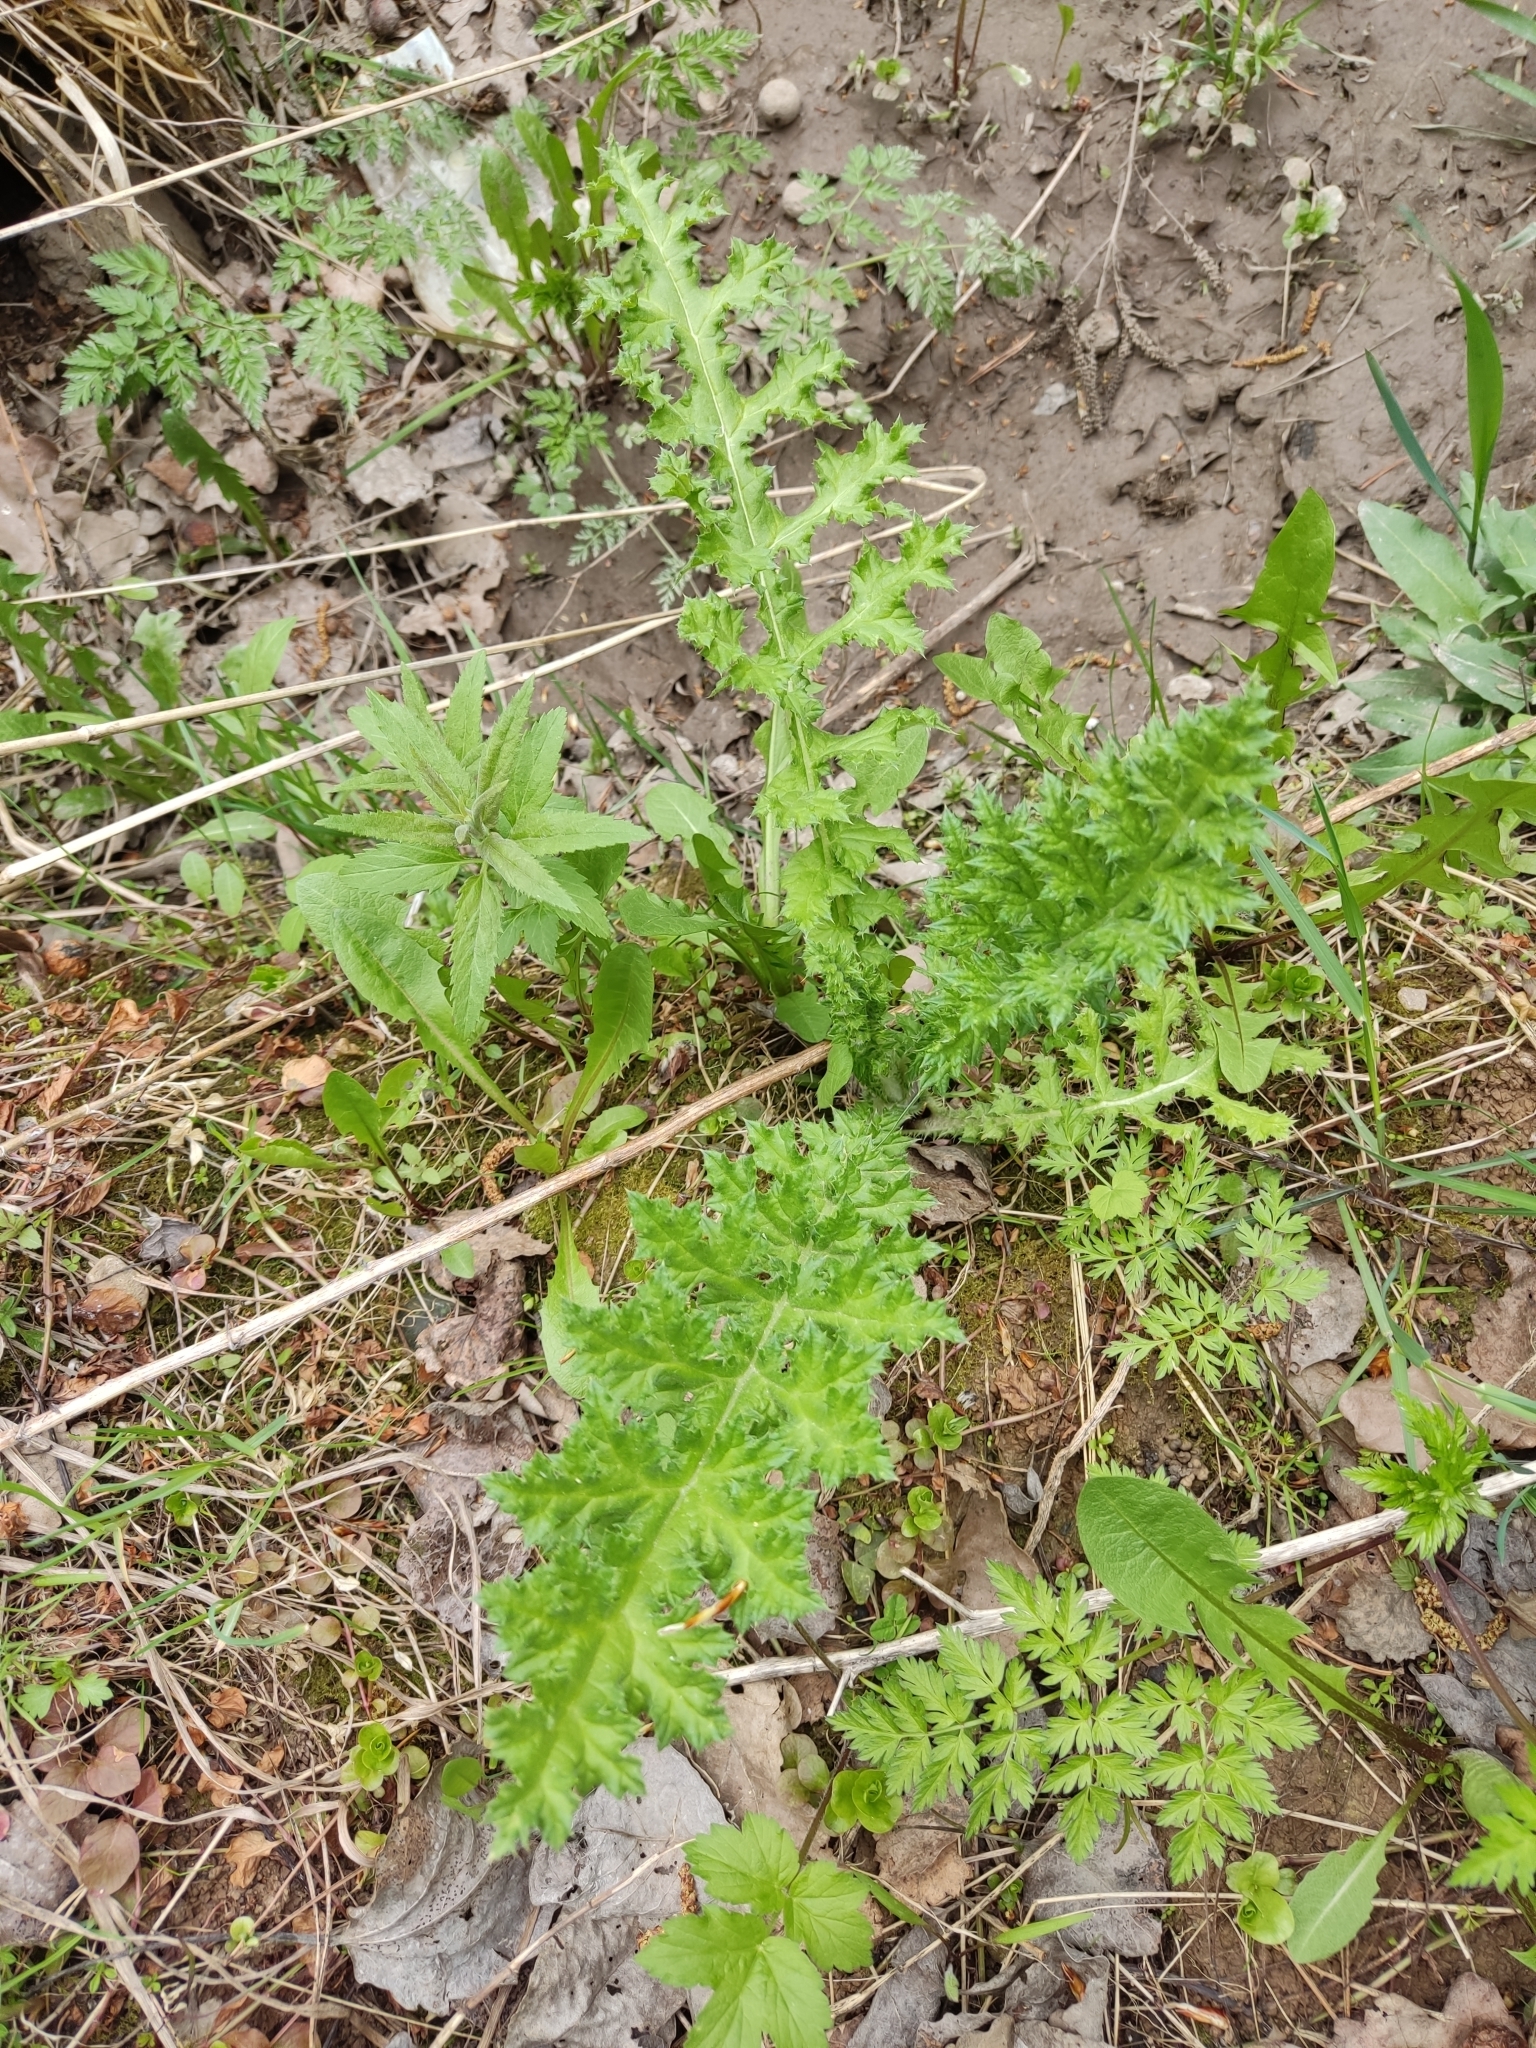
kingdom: Plantae
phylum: Tracheophyta
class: Magnoliopsida
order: Asterales
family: Asteraceae
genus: Echinops
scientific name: Echinops sphaerocephalus
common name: Glandular globe-thistle
